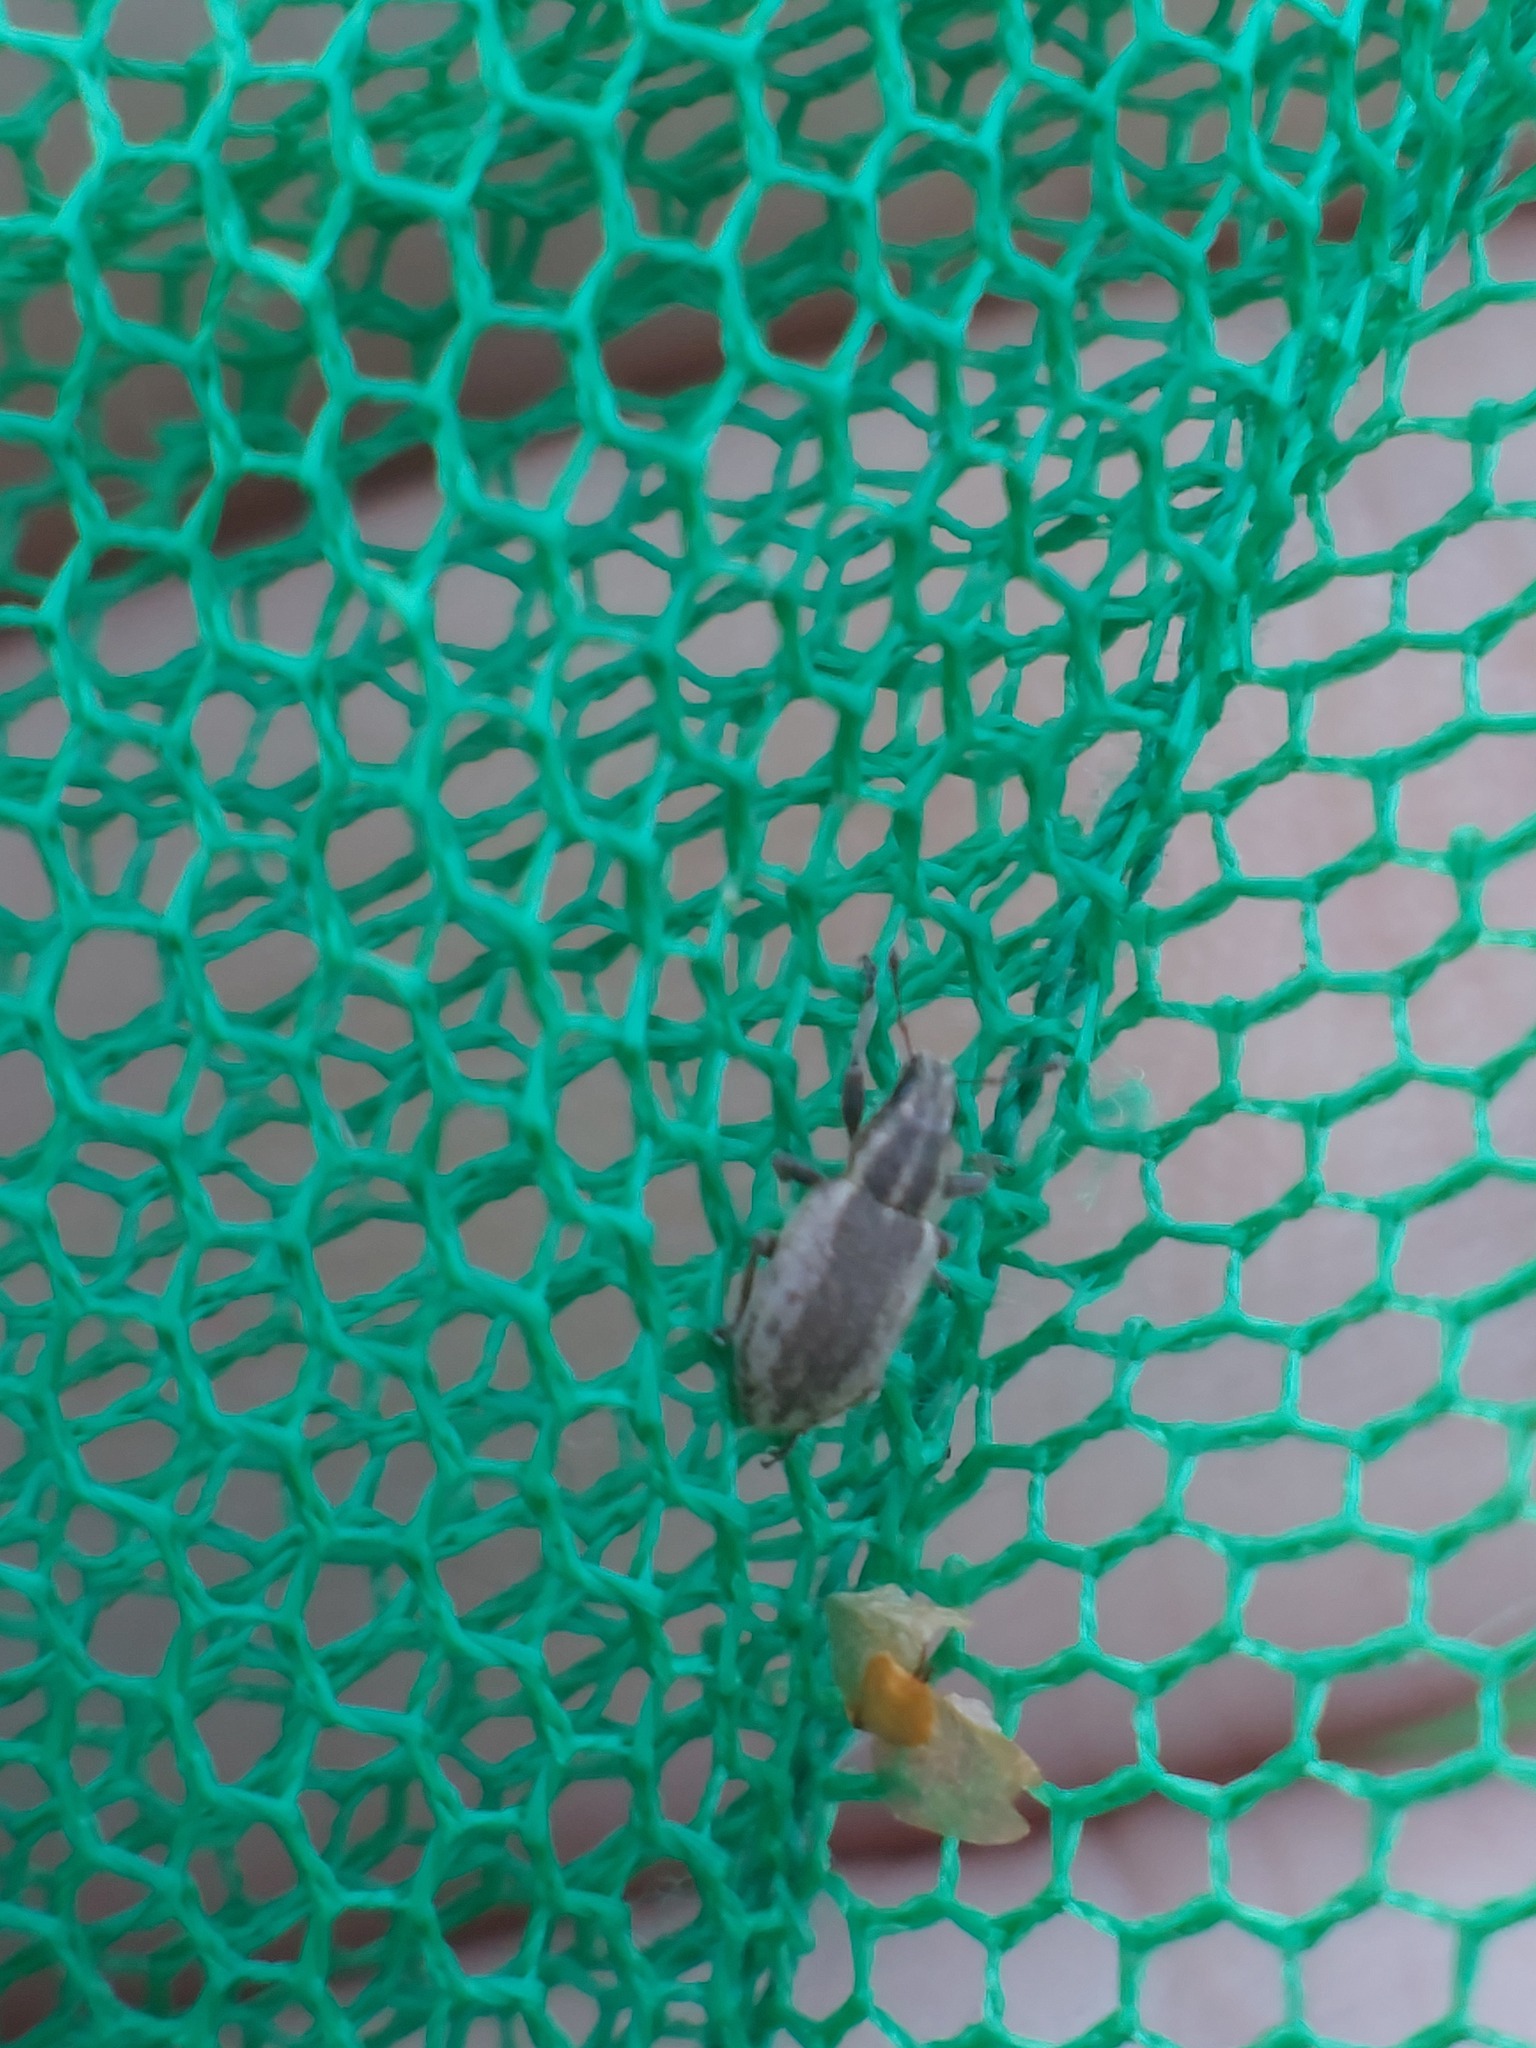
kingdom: Animalia
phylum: Arthropoda
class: Insecta
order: Coleoptera
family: Curculionidae
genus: Sitona
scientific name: Sitona humeralis
